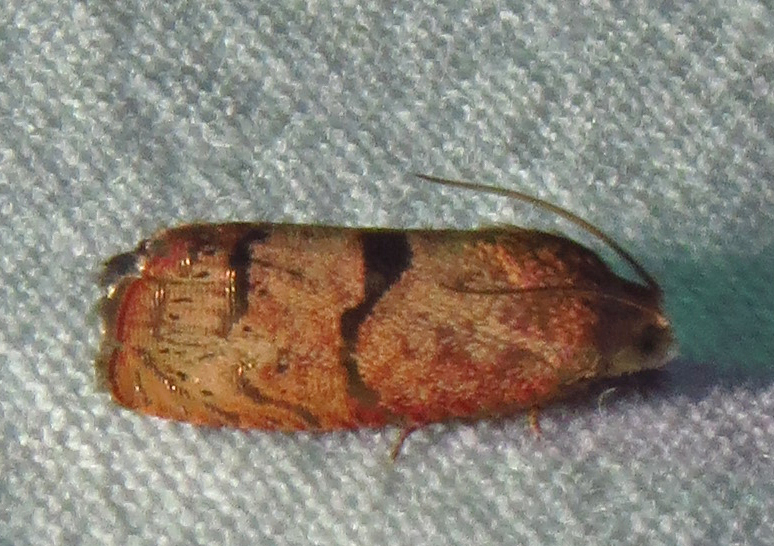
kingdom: Animalia
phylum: Arthropoda
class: Insecta
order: Lepidoptera
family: Tortricidae
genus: Cydia
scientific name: Cydia latiferreana
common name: Filbertworm moth
